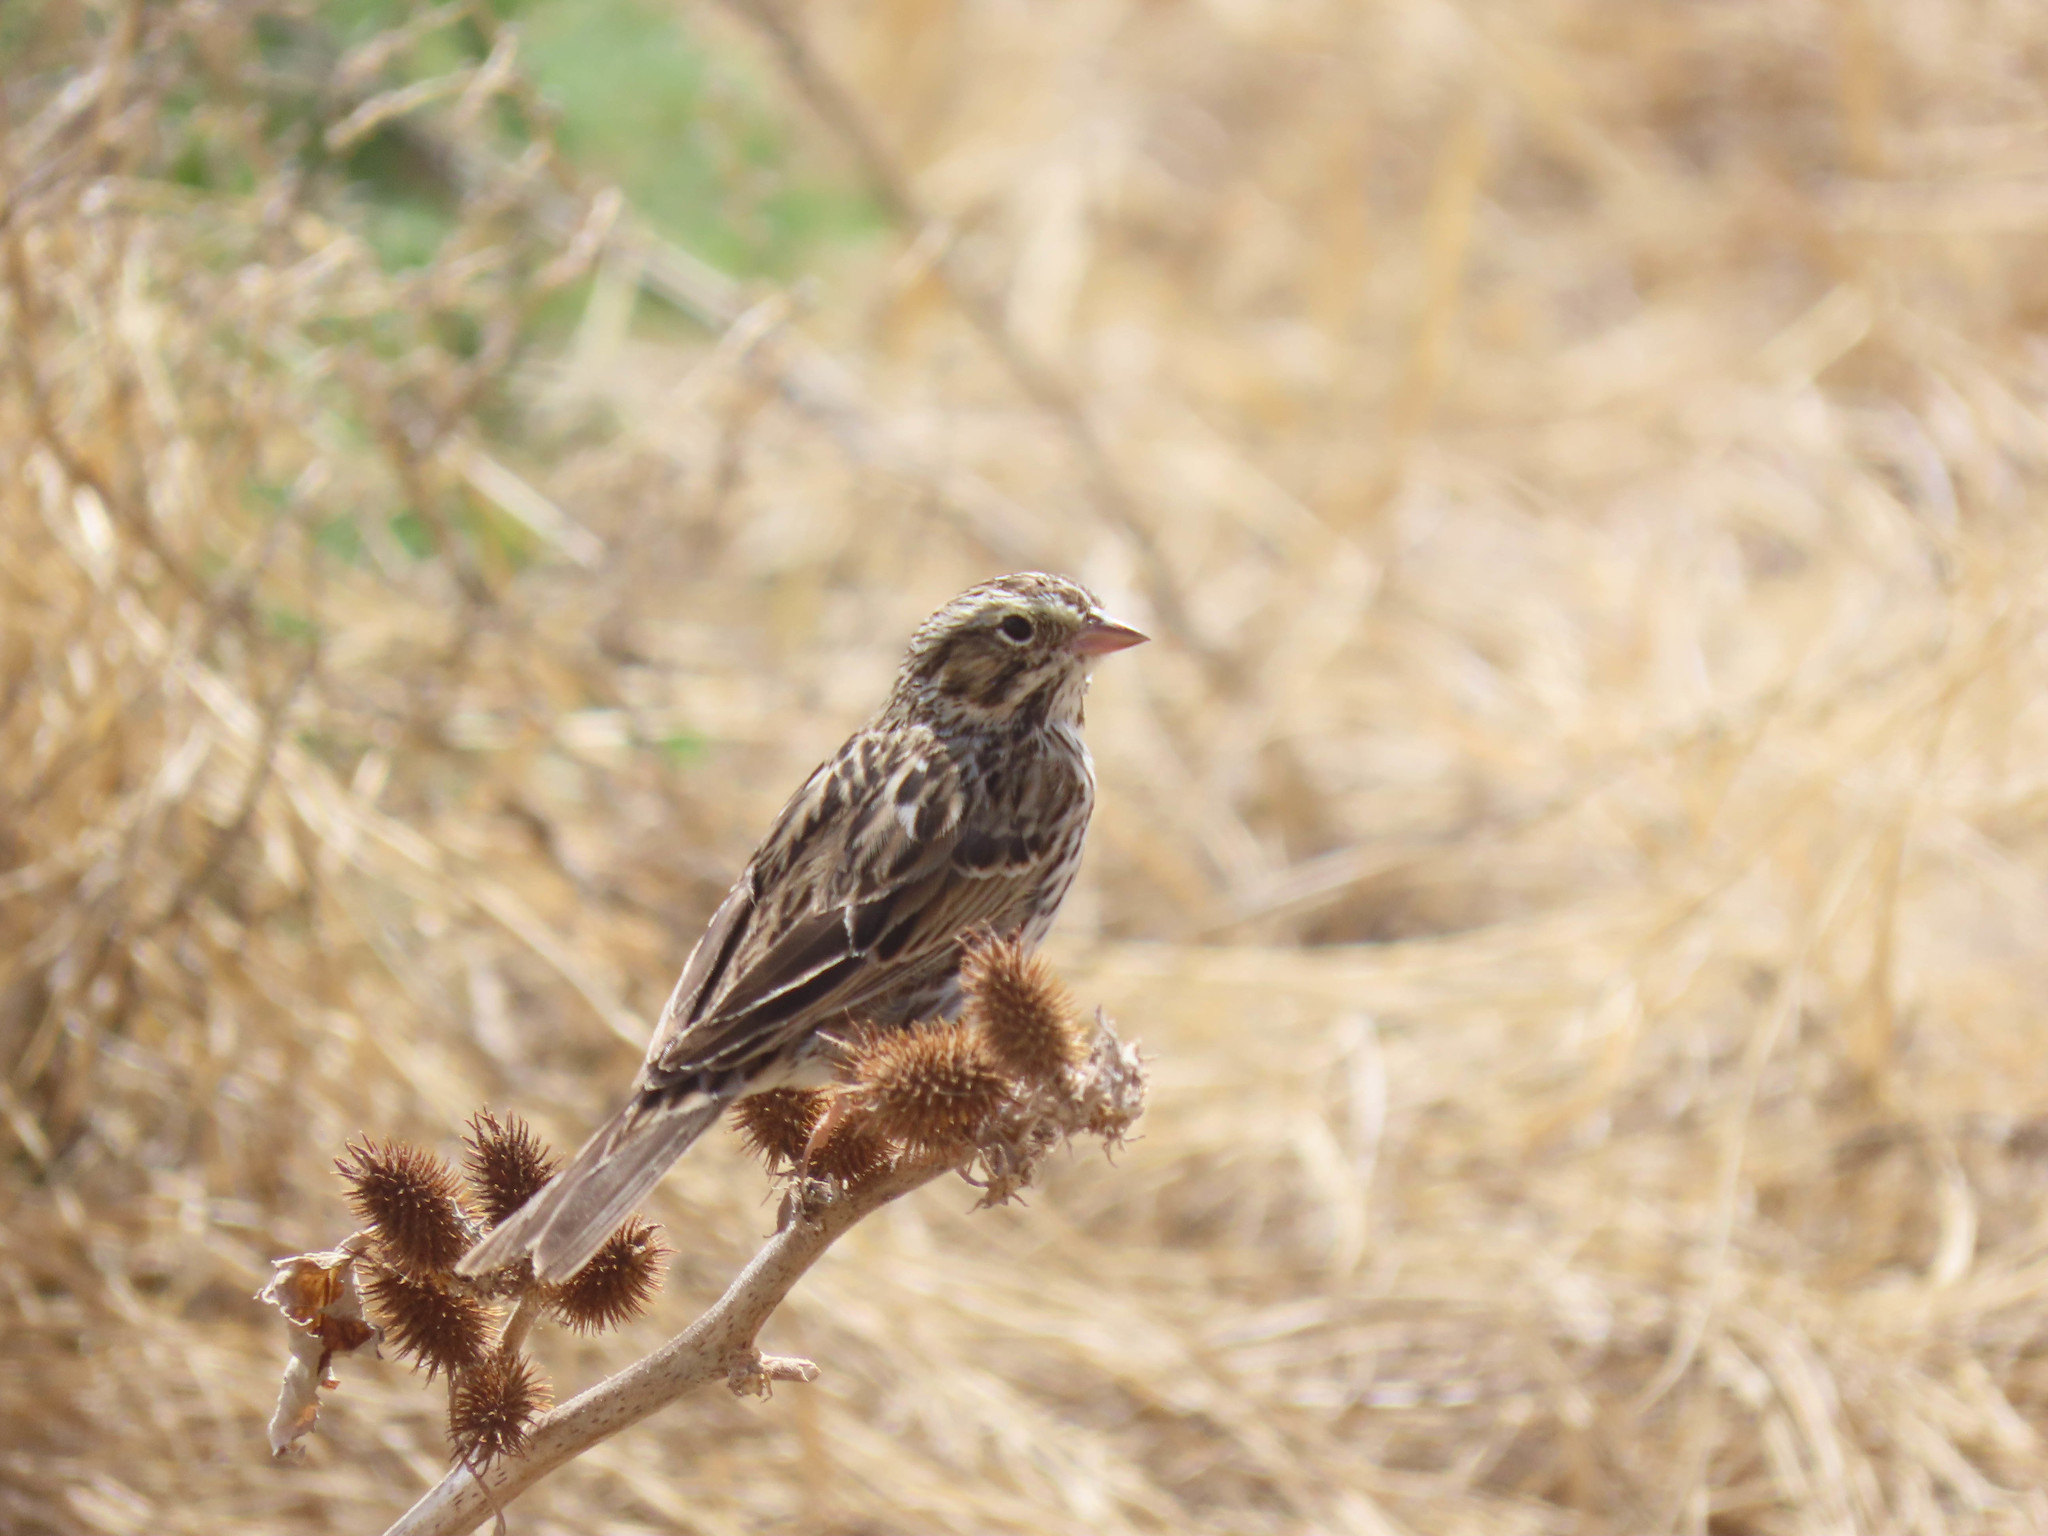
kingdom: Animalia
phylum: Chordata
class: Aves
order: Passeriformes
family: Passerellidae
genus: Passerculus
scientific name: Passerculus sandwichensis
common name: Savannah sparrow
